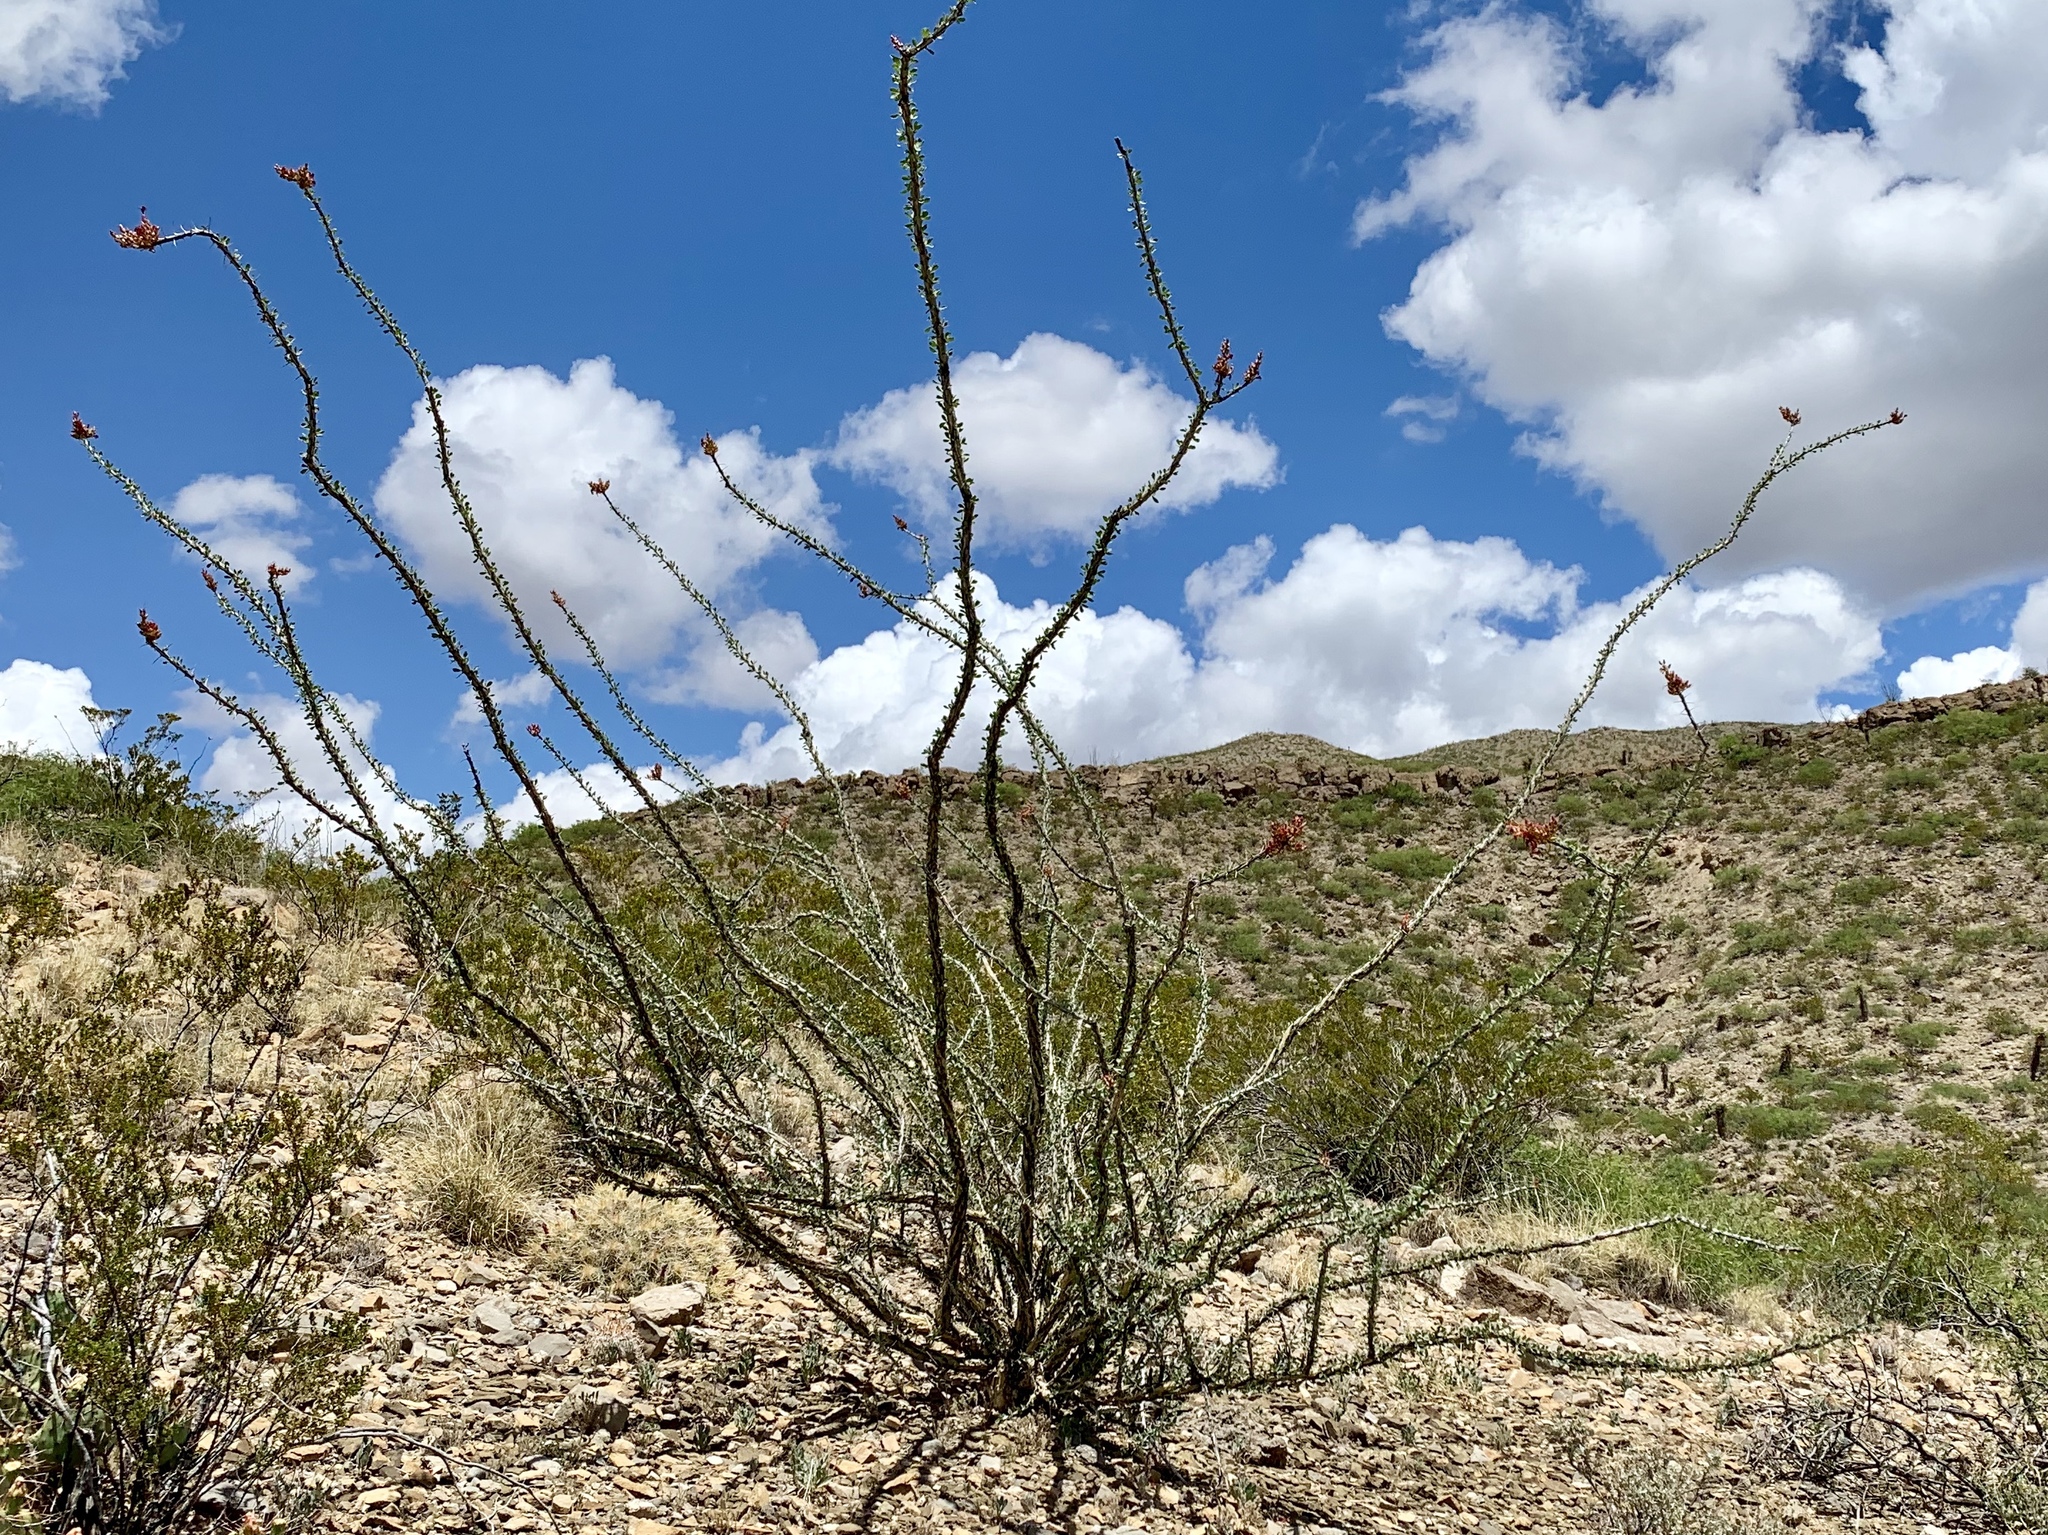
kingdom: Plantae
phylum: Tracheophyta
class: Magnoliopsida
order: Ericales
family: Fouquieriaceae
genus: Fouquieria
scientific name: Fouquieria splendens
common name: Vine-cactus
